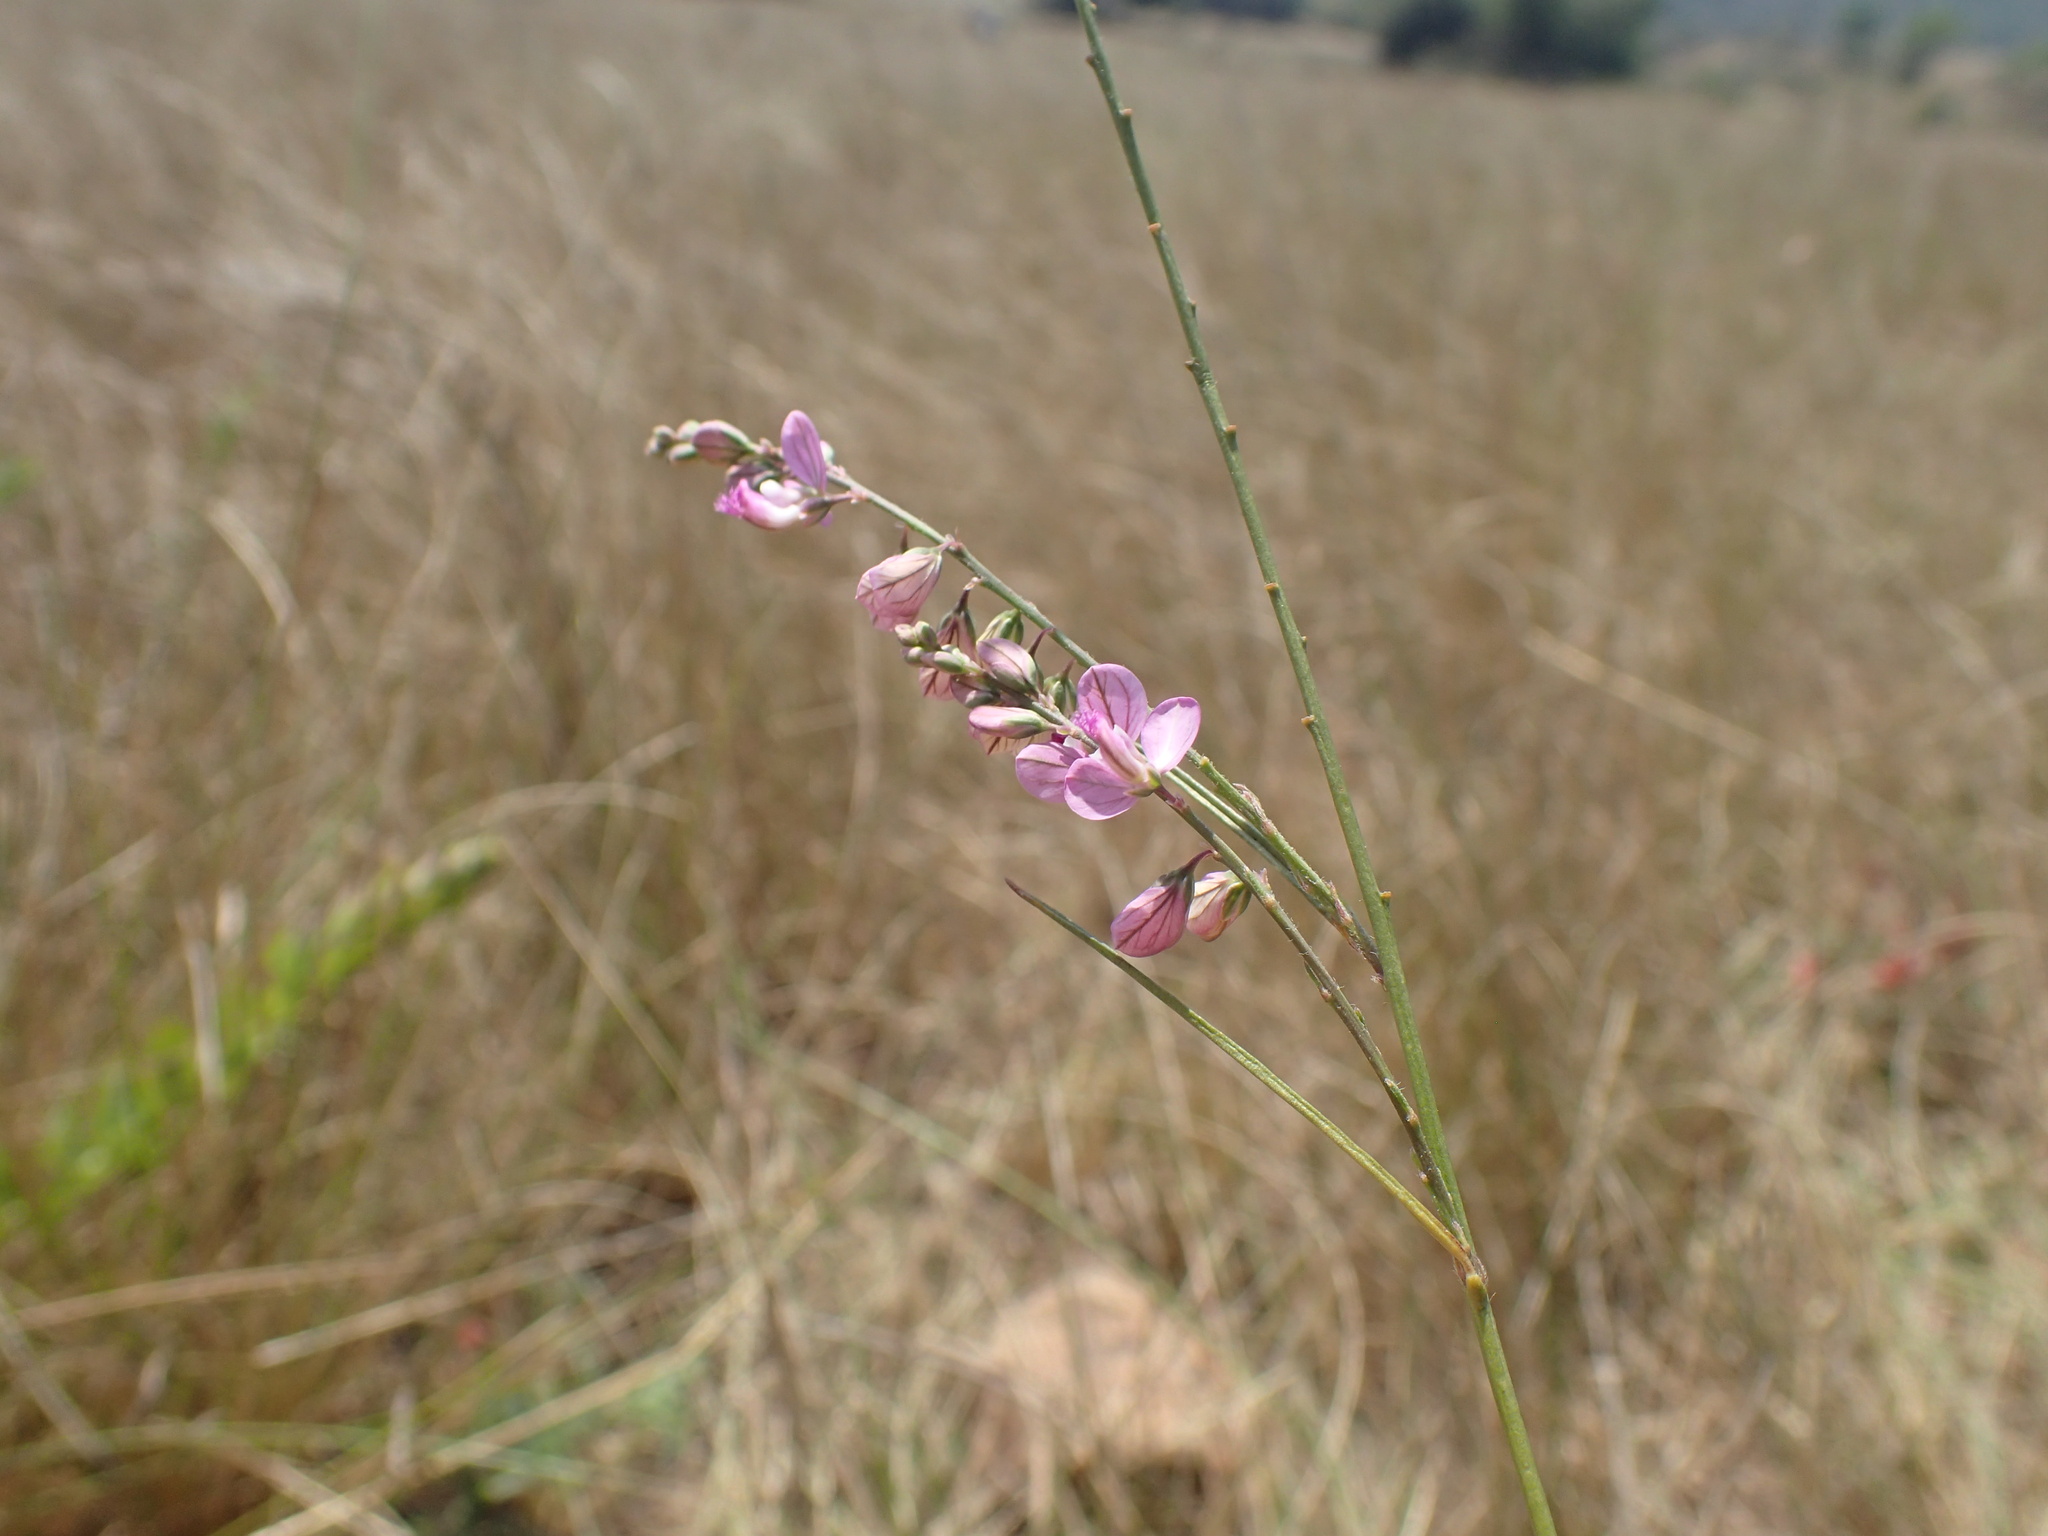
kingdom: Plantae
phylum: Tracheophyta
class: Magnoliopsida
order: Fabales
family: Polygalaceae
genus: Polygala
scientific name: Polygala hottentotta
